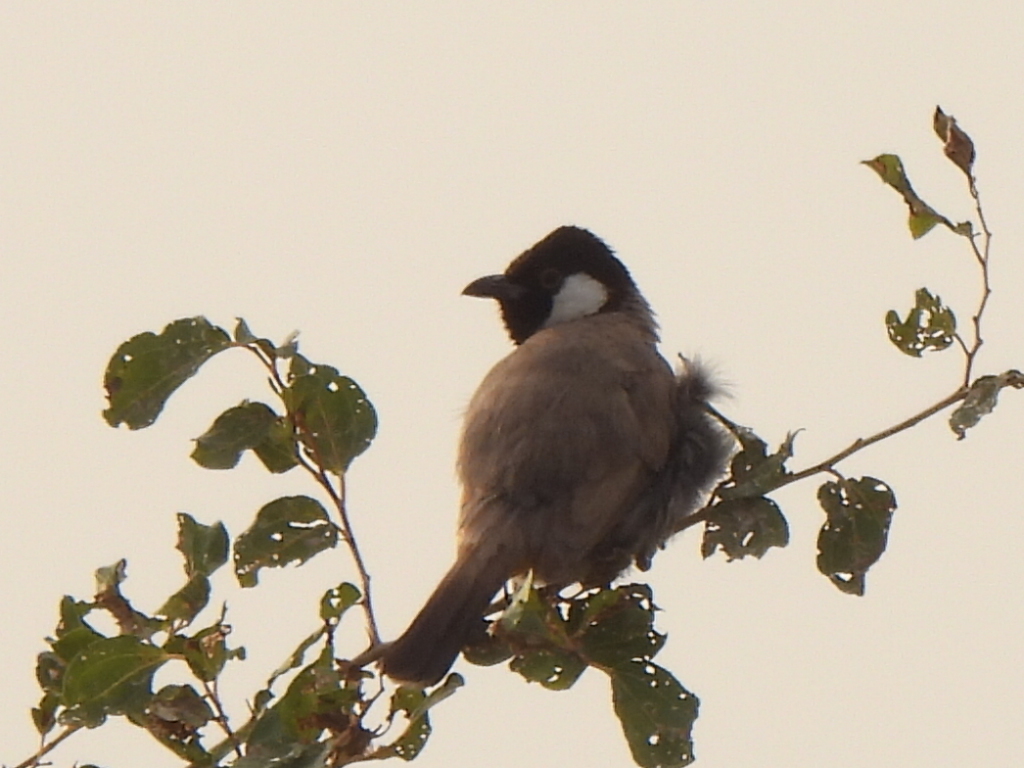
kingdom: Animalia
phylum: Chordata
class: Aves
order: Passeriformes
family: Pycnonotidae
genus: Pycnonotus
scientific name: Pycnonotus leucotis
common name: White-eared bulbul
